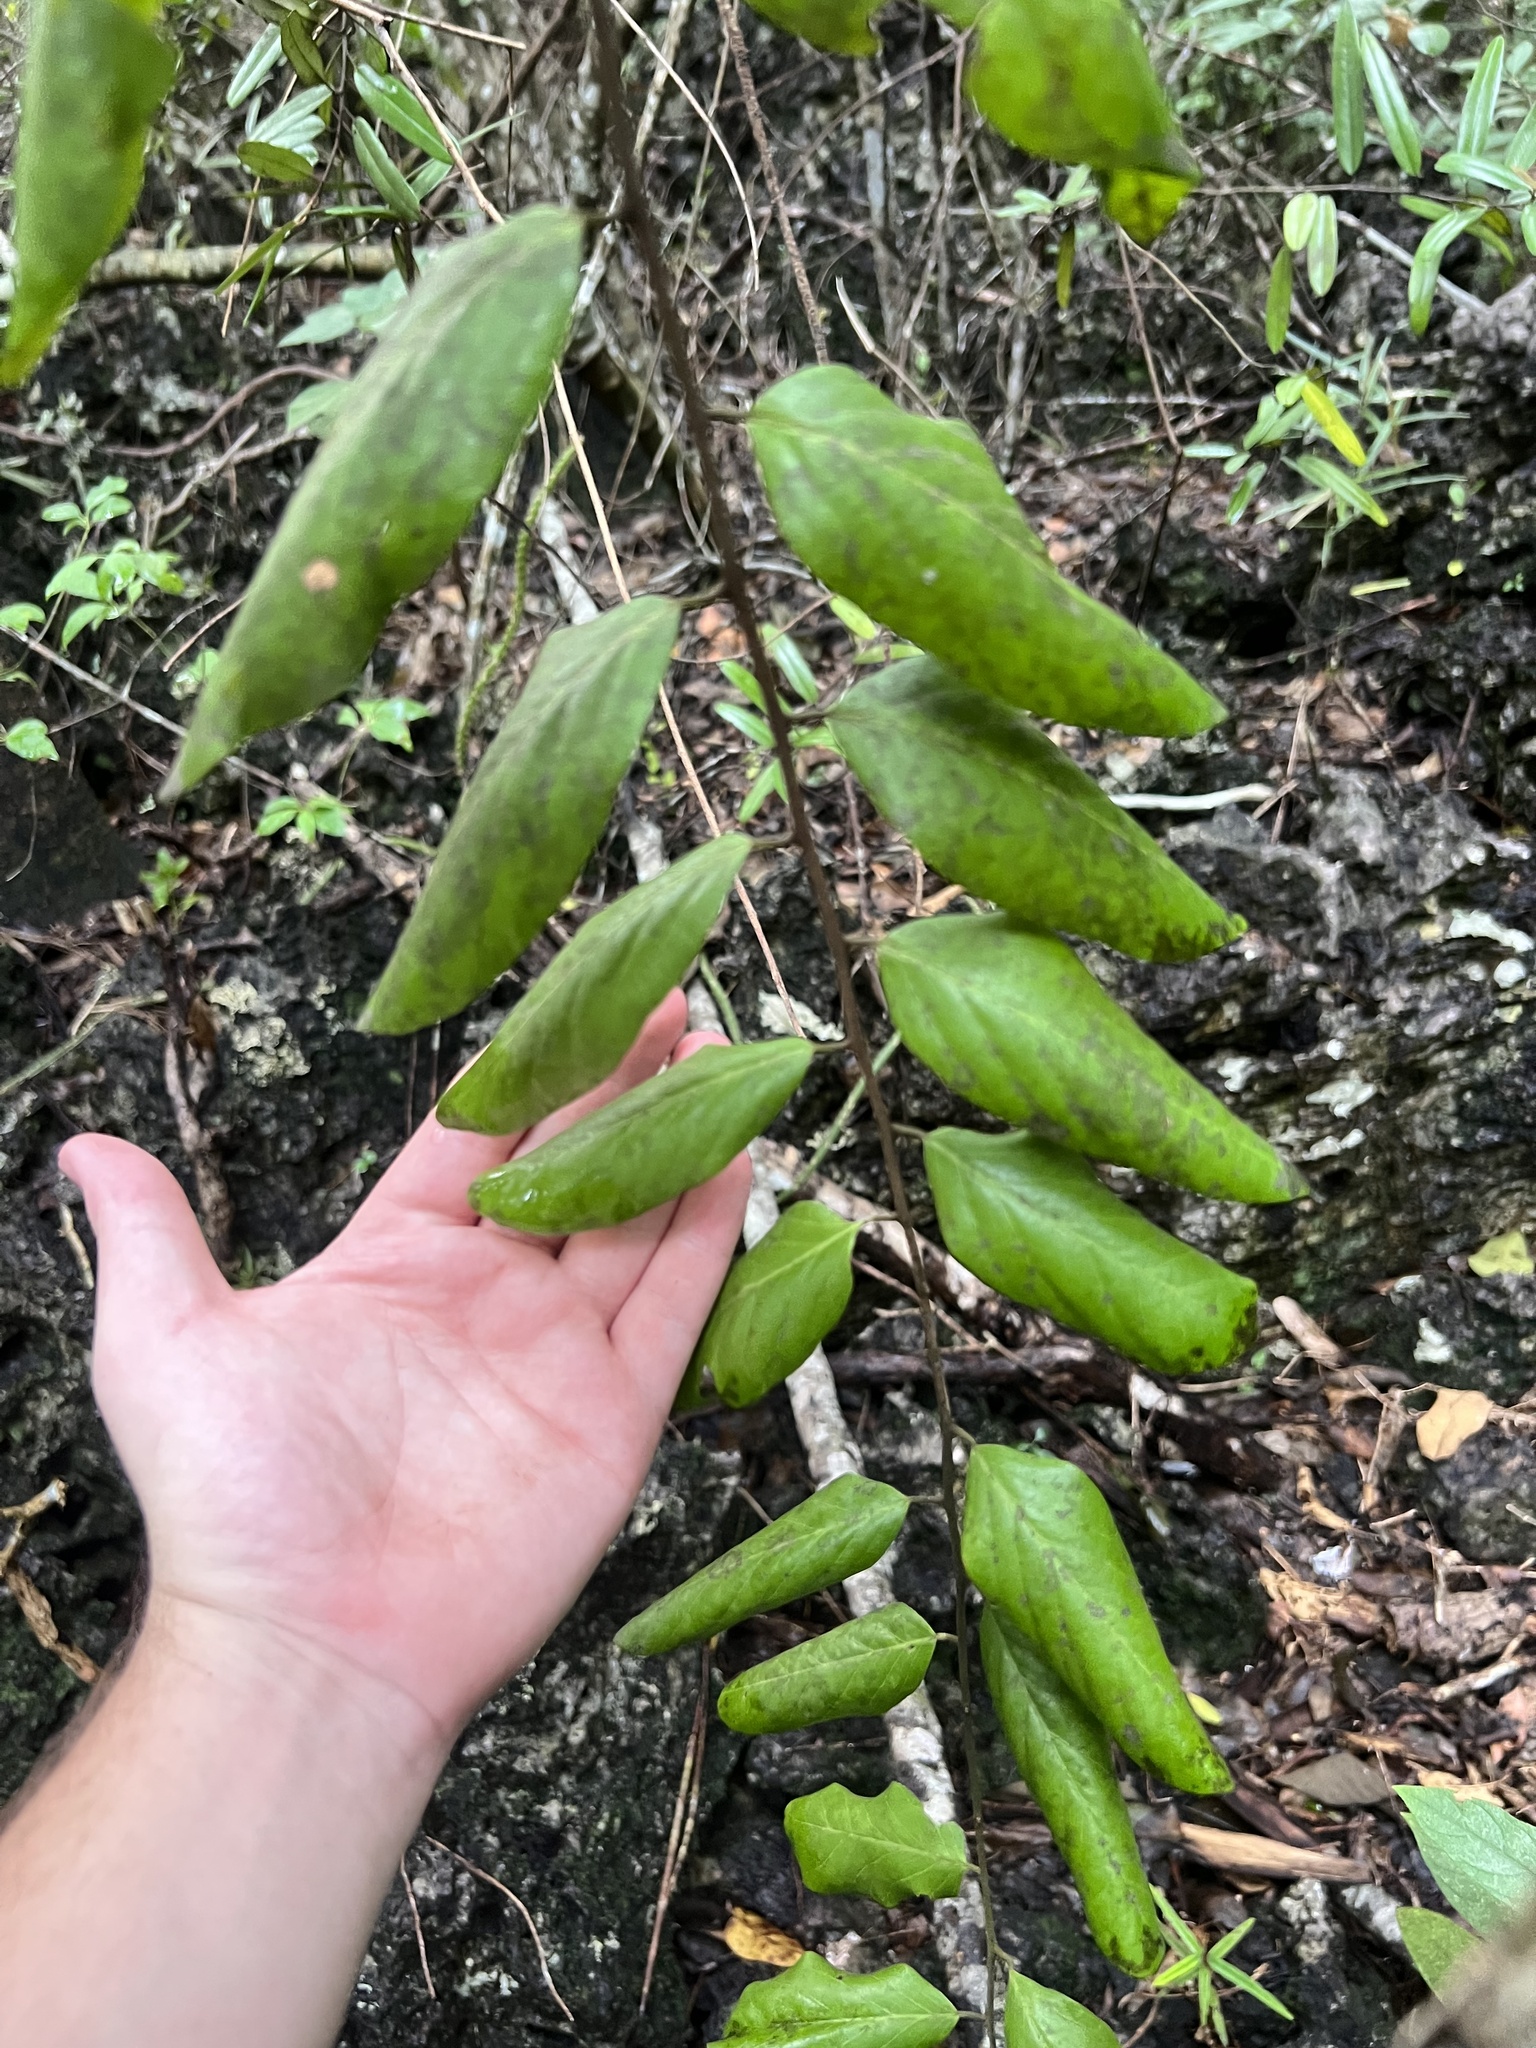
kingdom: Plantae
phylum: Tracheophyta
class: Magnoliopsida
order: Brassicales
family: Capparaceae
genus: Cynophalla
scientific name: Cynophalla flexuosa
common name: Capertree
